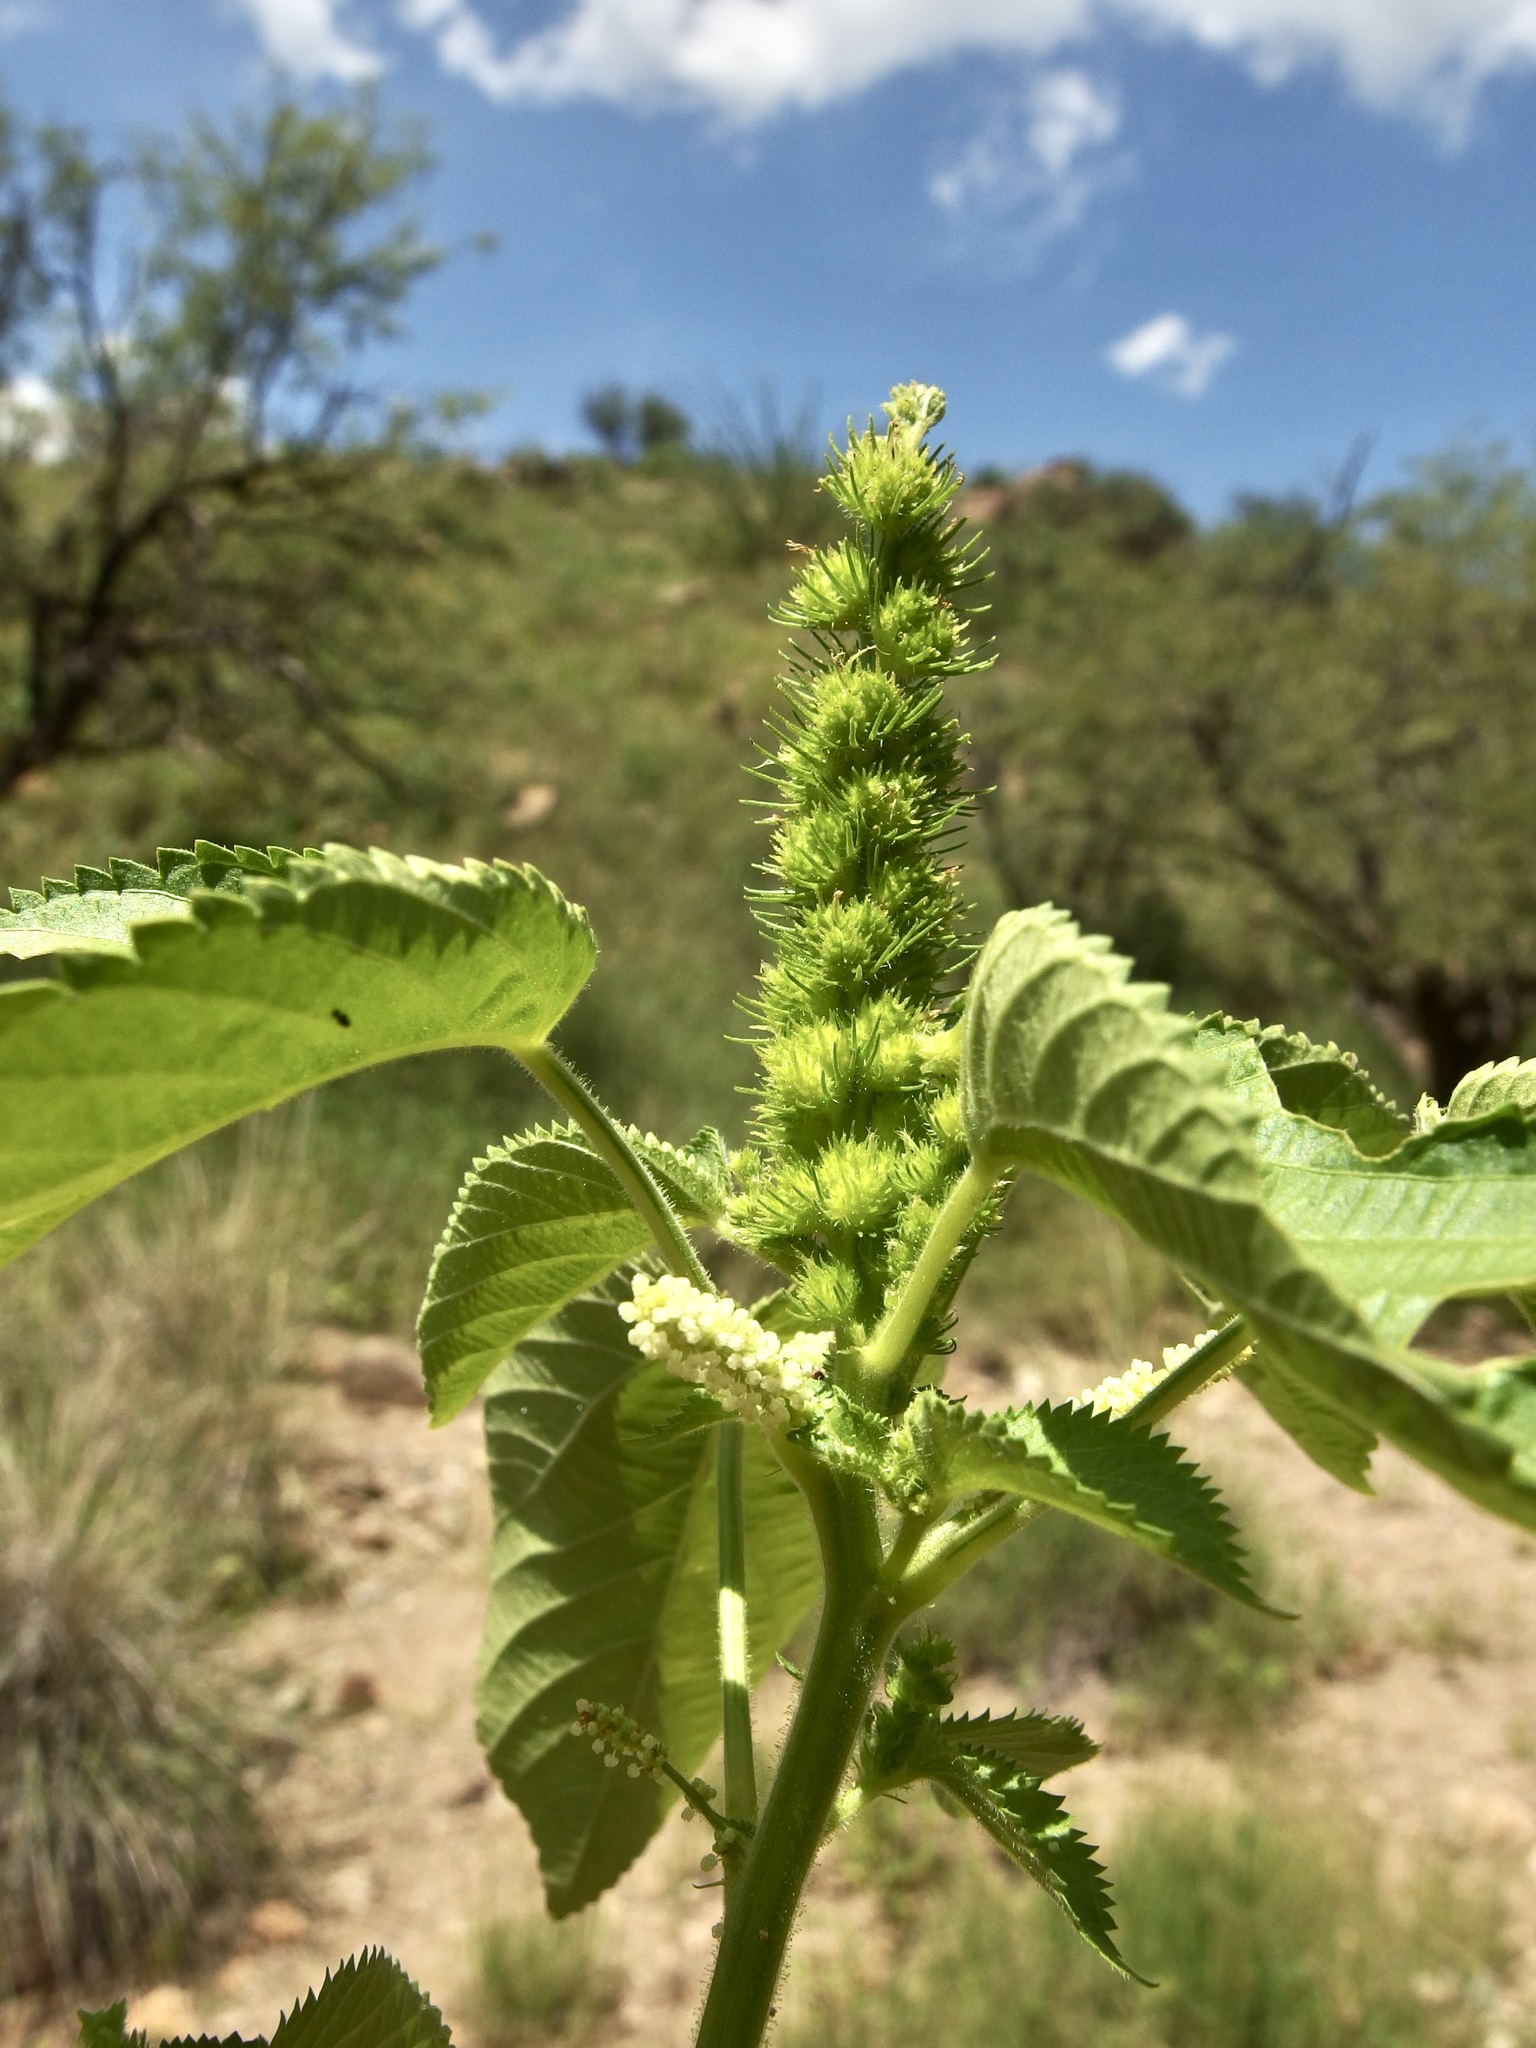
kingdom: Plantae
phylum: Tracheophyta
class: Magnoliopsida
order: Malpighiales
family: Euphorbiaceae
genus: Acalypha
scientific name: Acalypha ostryifolia
